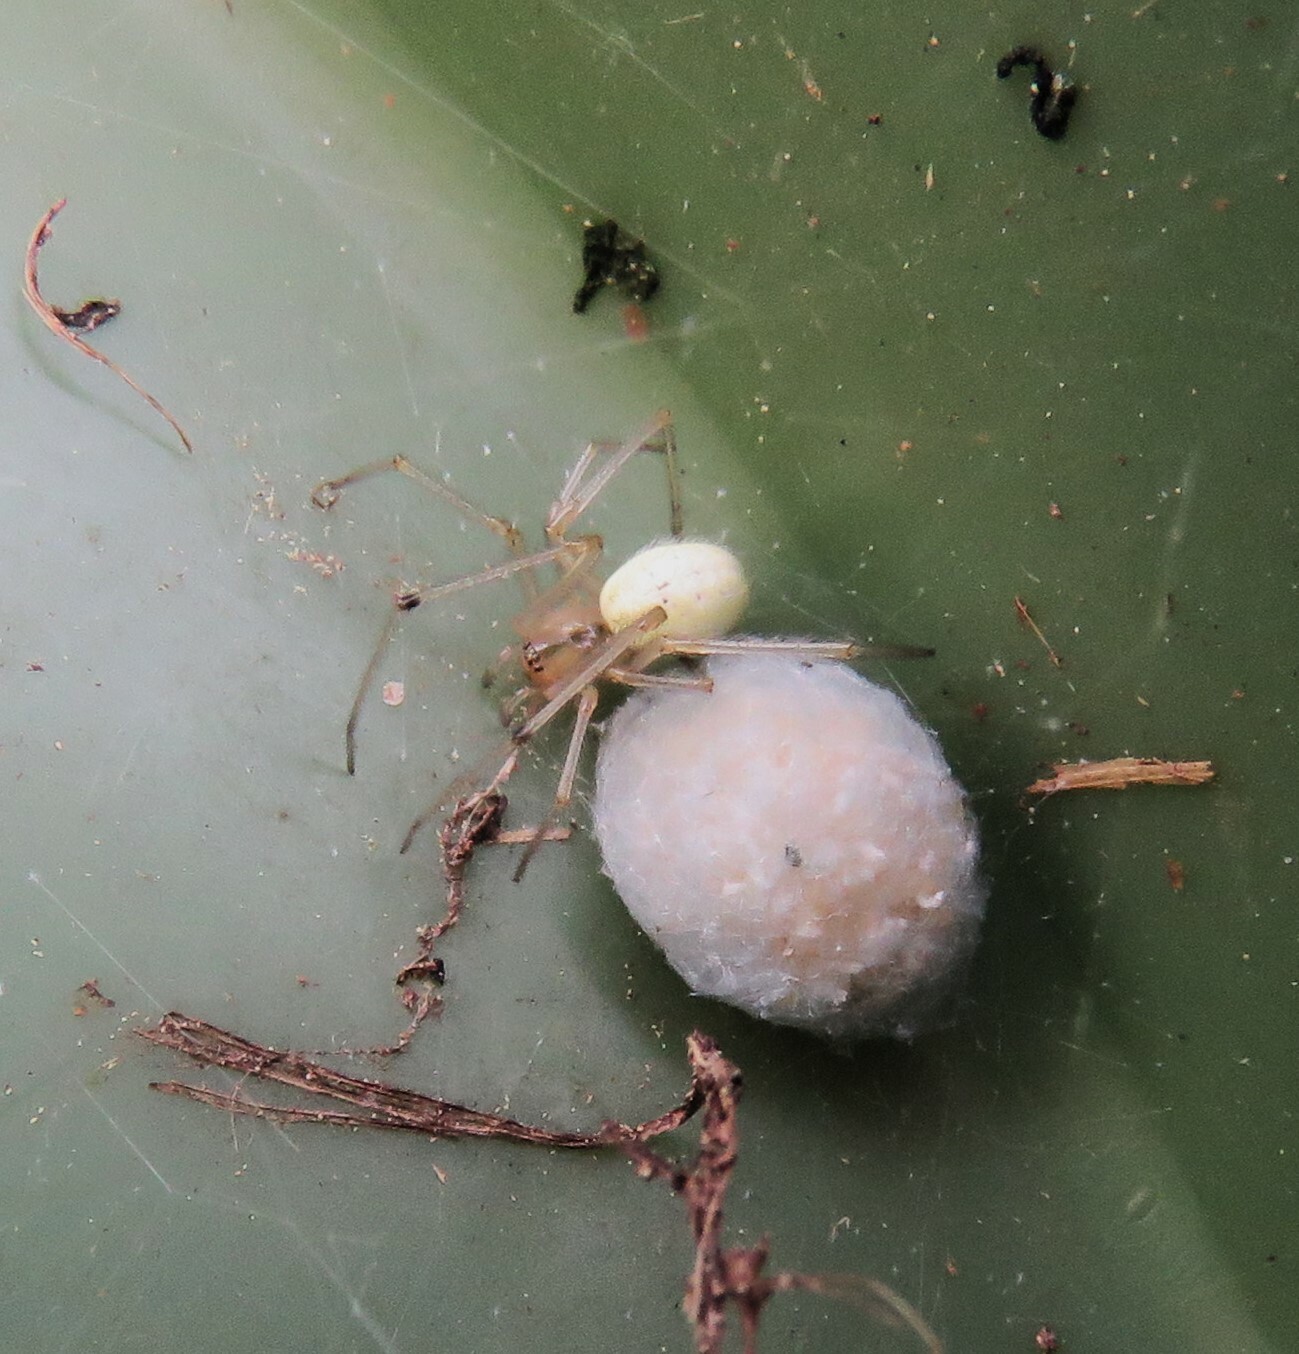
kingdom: Animalia
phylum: Arthropoda
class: Arachnida
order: Araneae
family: Theridiidae
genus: Enoplognatha
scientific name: Enoplognatha ovata
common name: Common candy-striped spider
